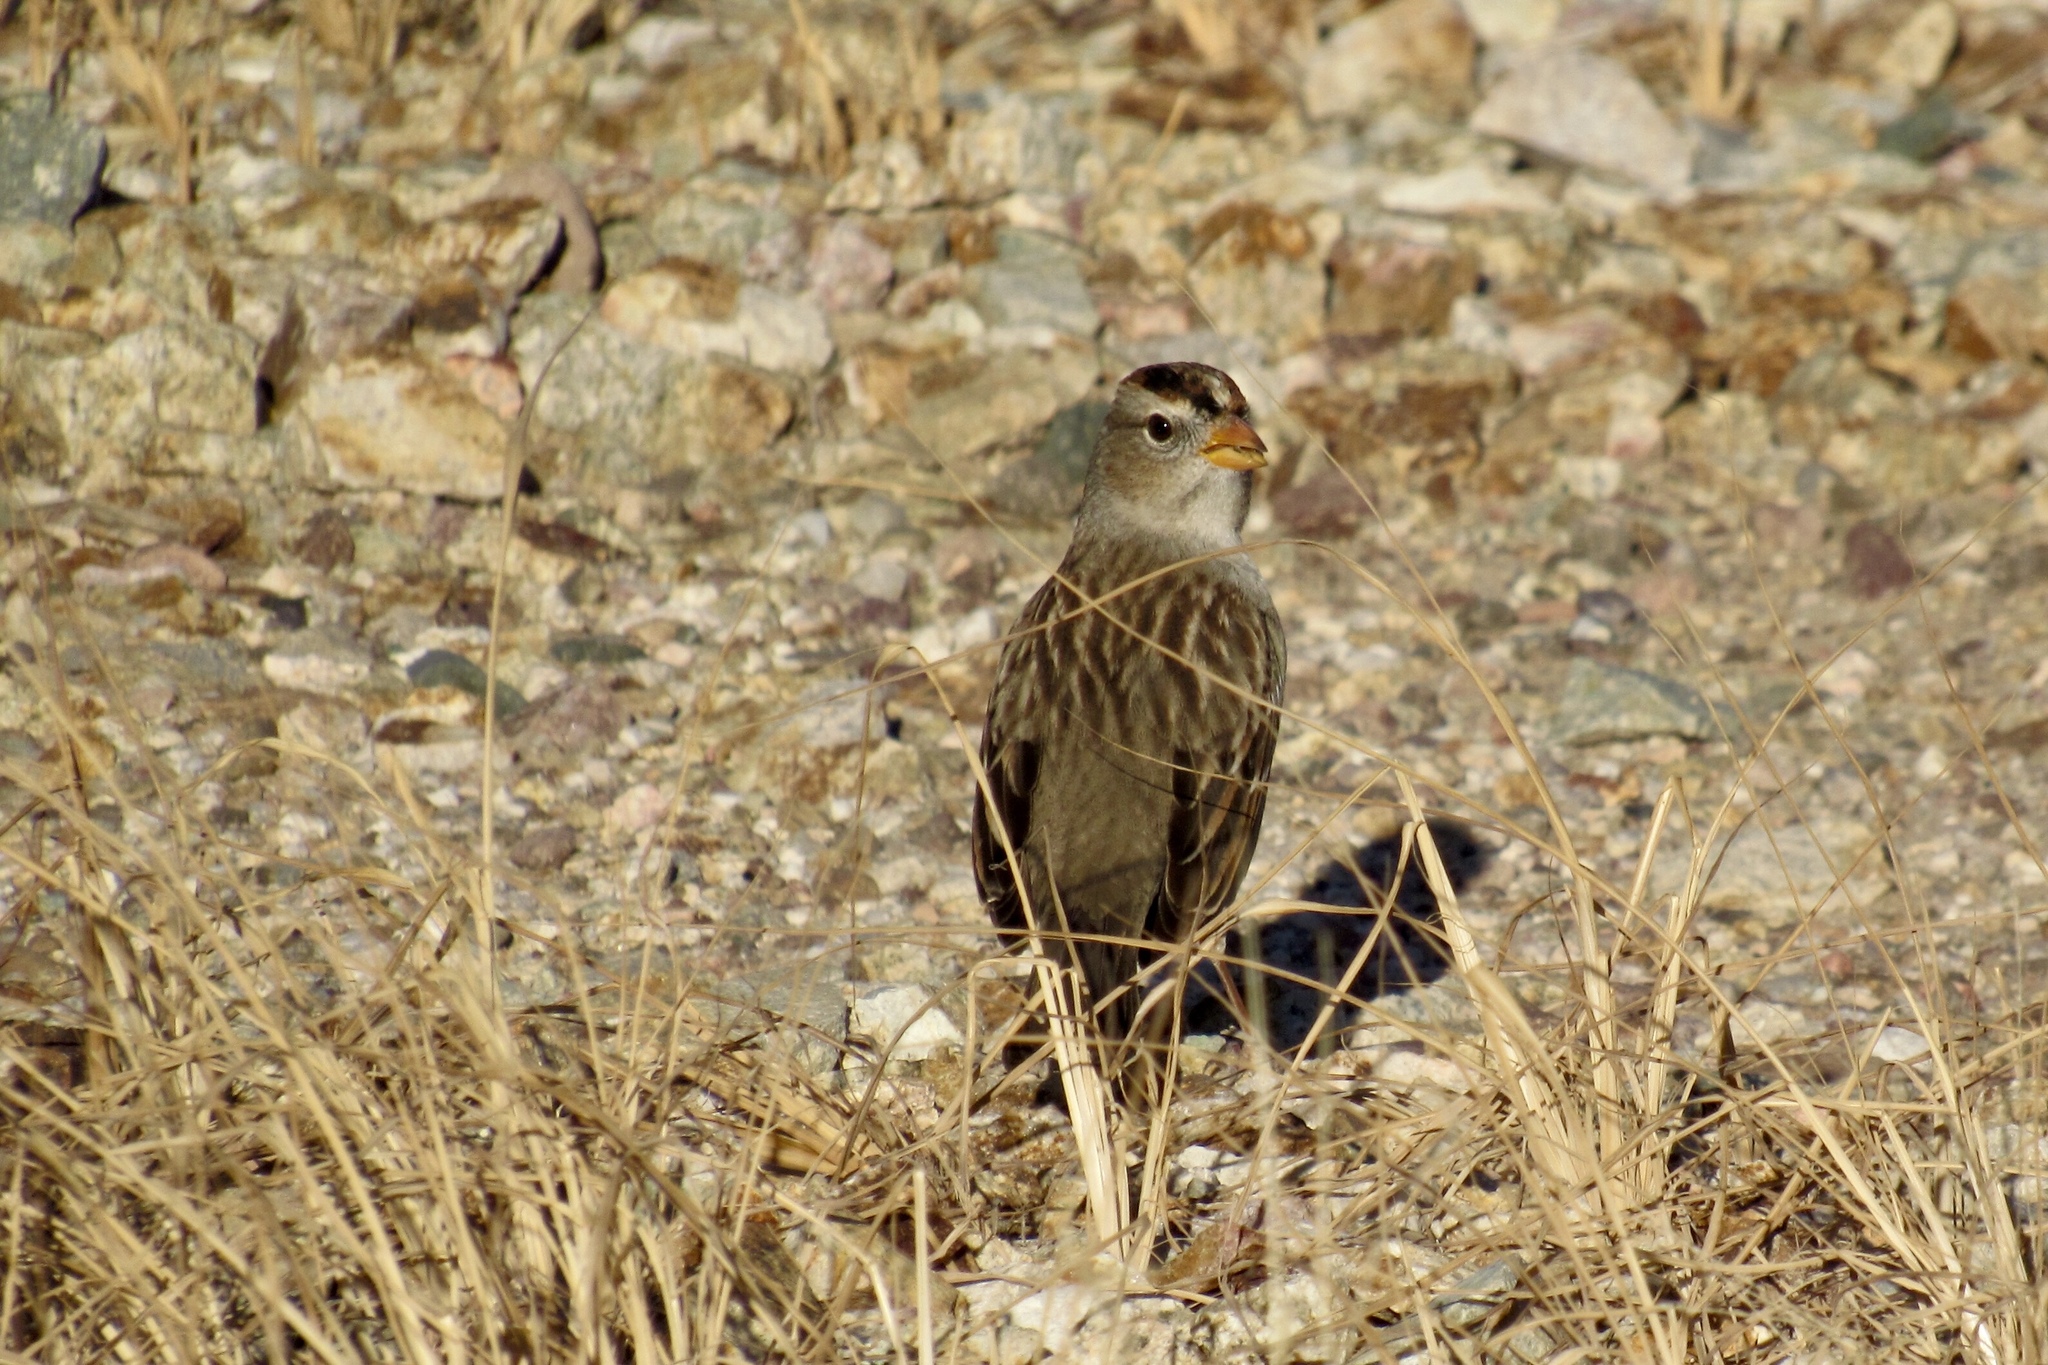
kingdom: Animalia
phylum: Chordata
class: Aves
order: Passeriformes
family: Passerellidae
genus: Zonotrichia
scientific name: Zonotrichia leucophrys
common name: White-crowned sparrow
